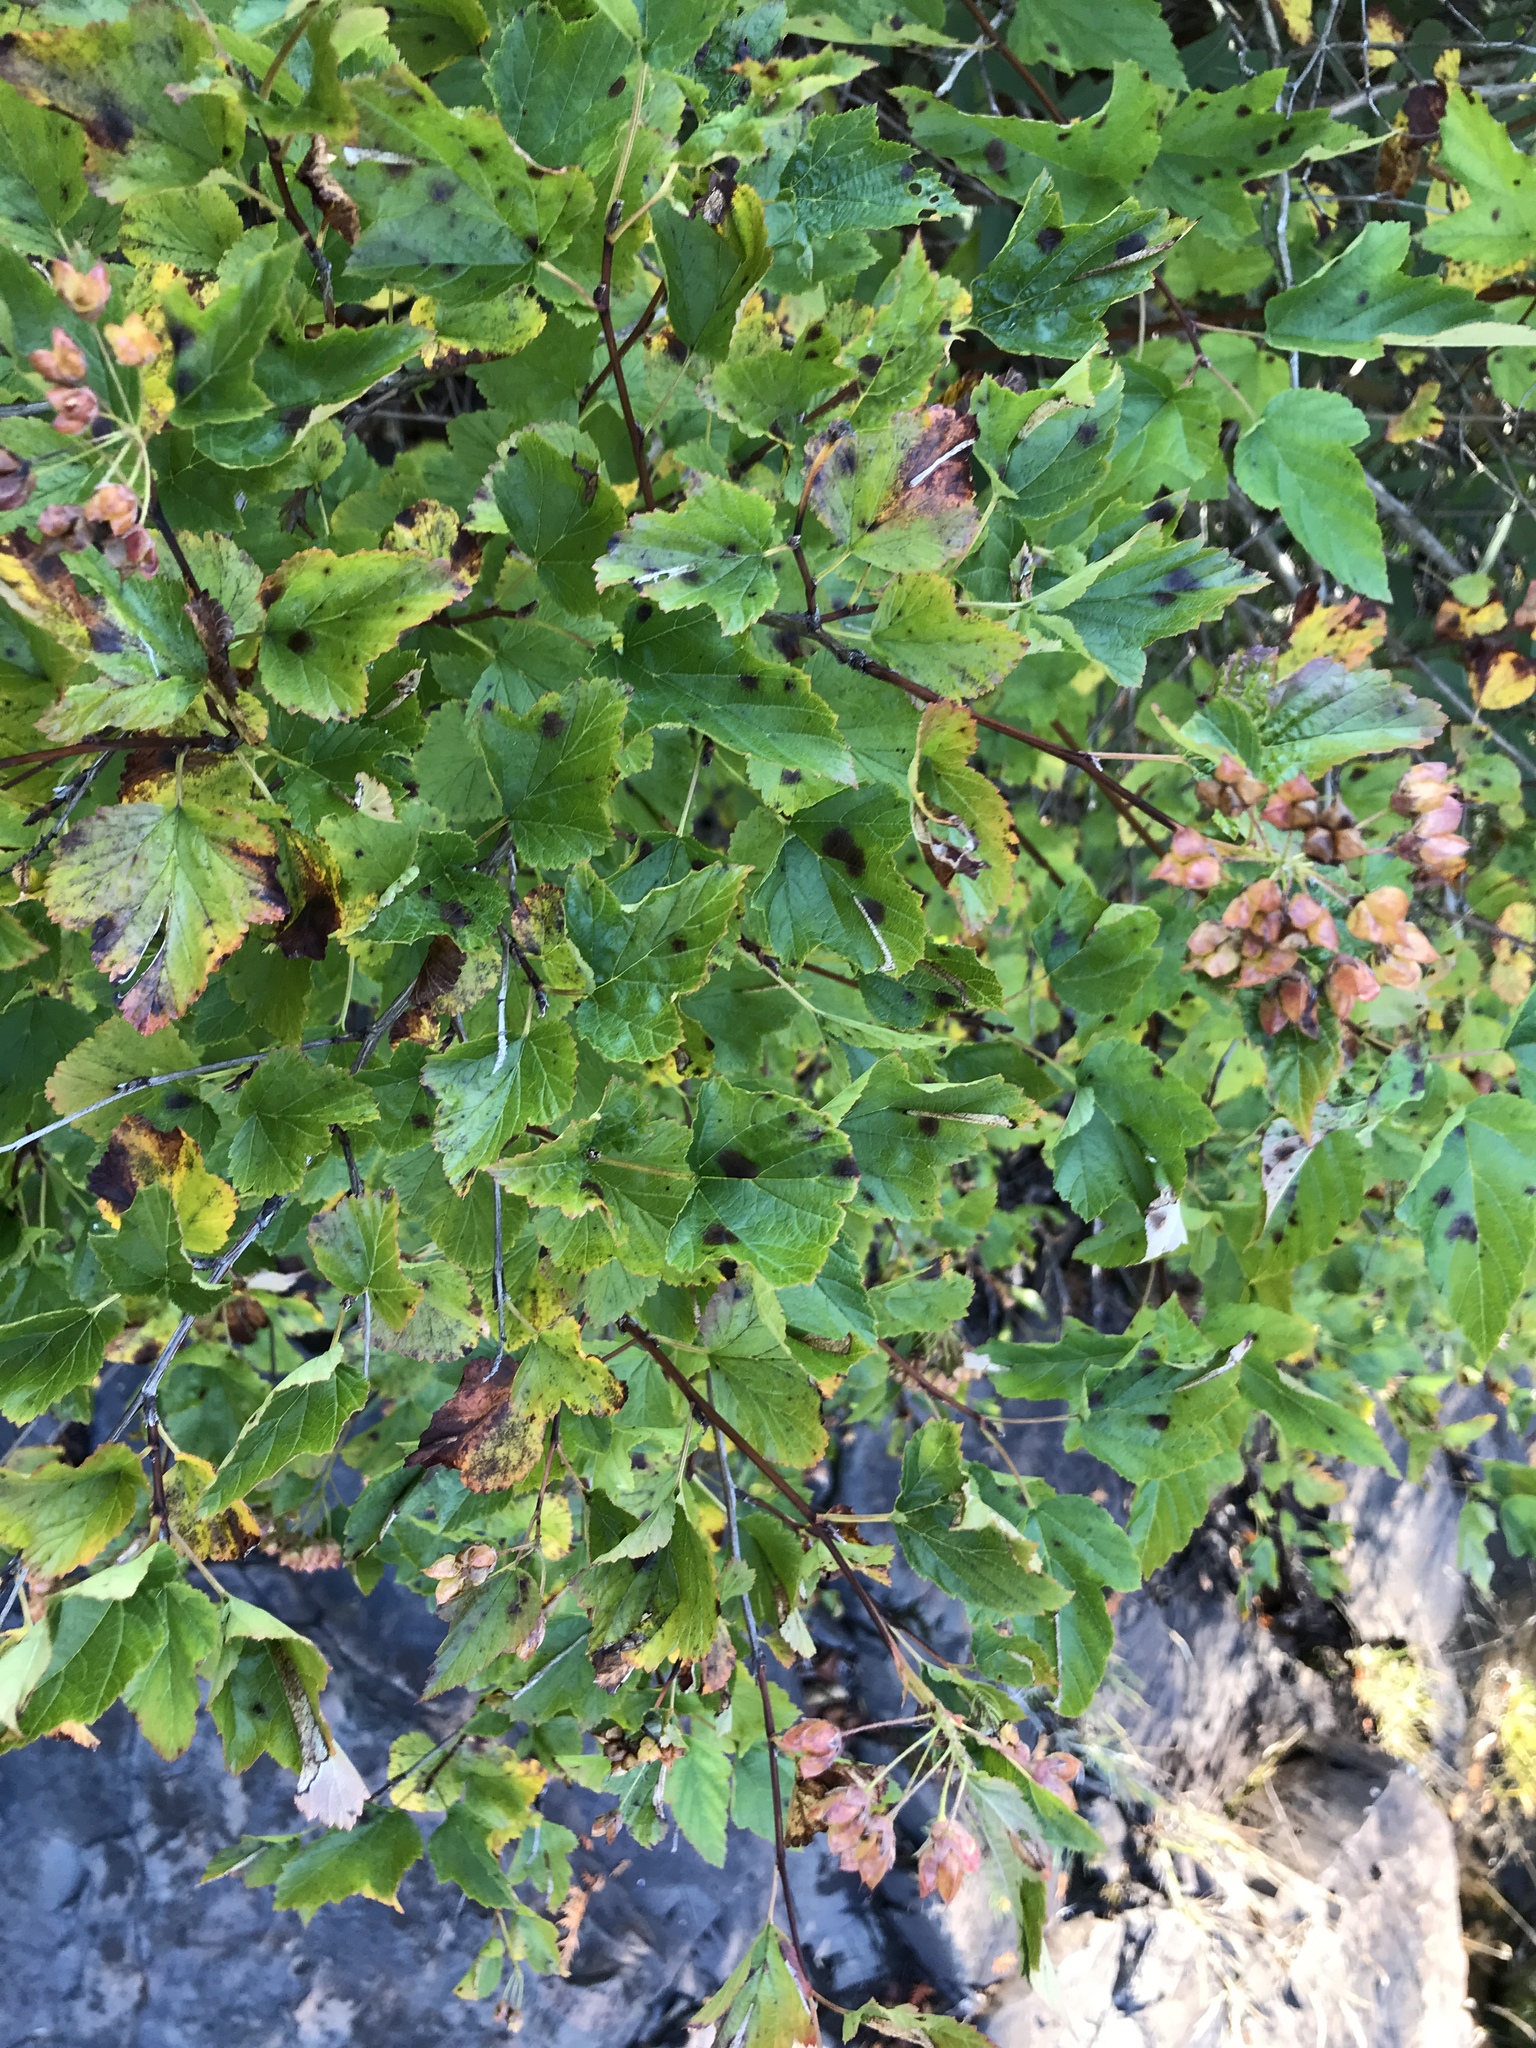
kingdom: Plantae
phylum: Tracheophyta
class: Magnoliopsida
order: Rosales
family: Rosaceae
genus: Physocarpus
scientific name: Physocarpus opulifolius
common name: Ninebark
